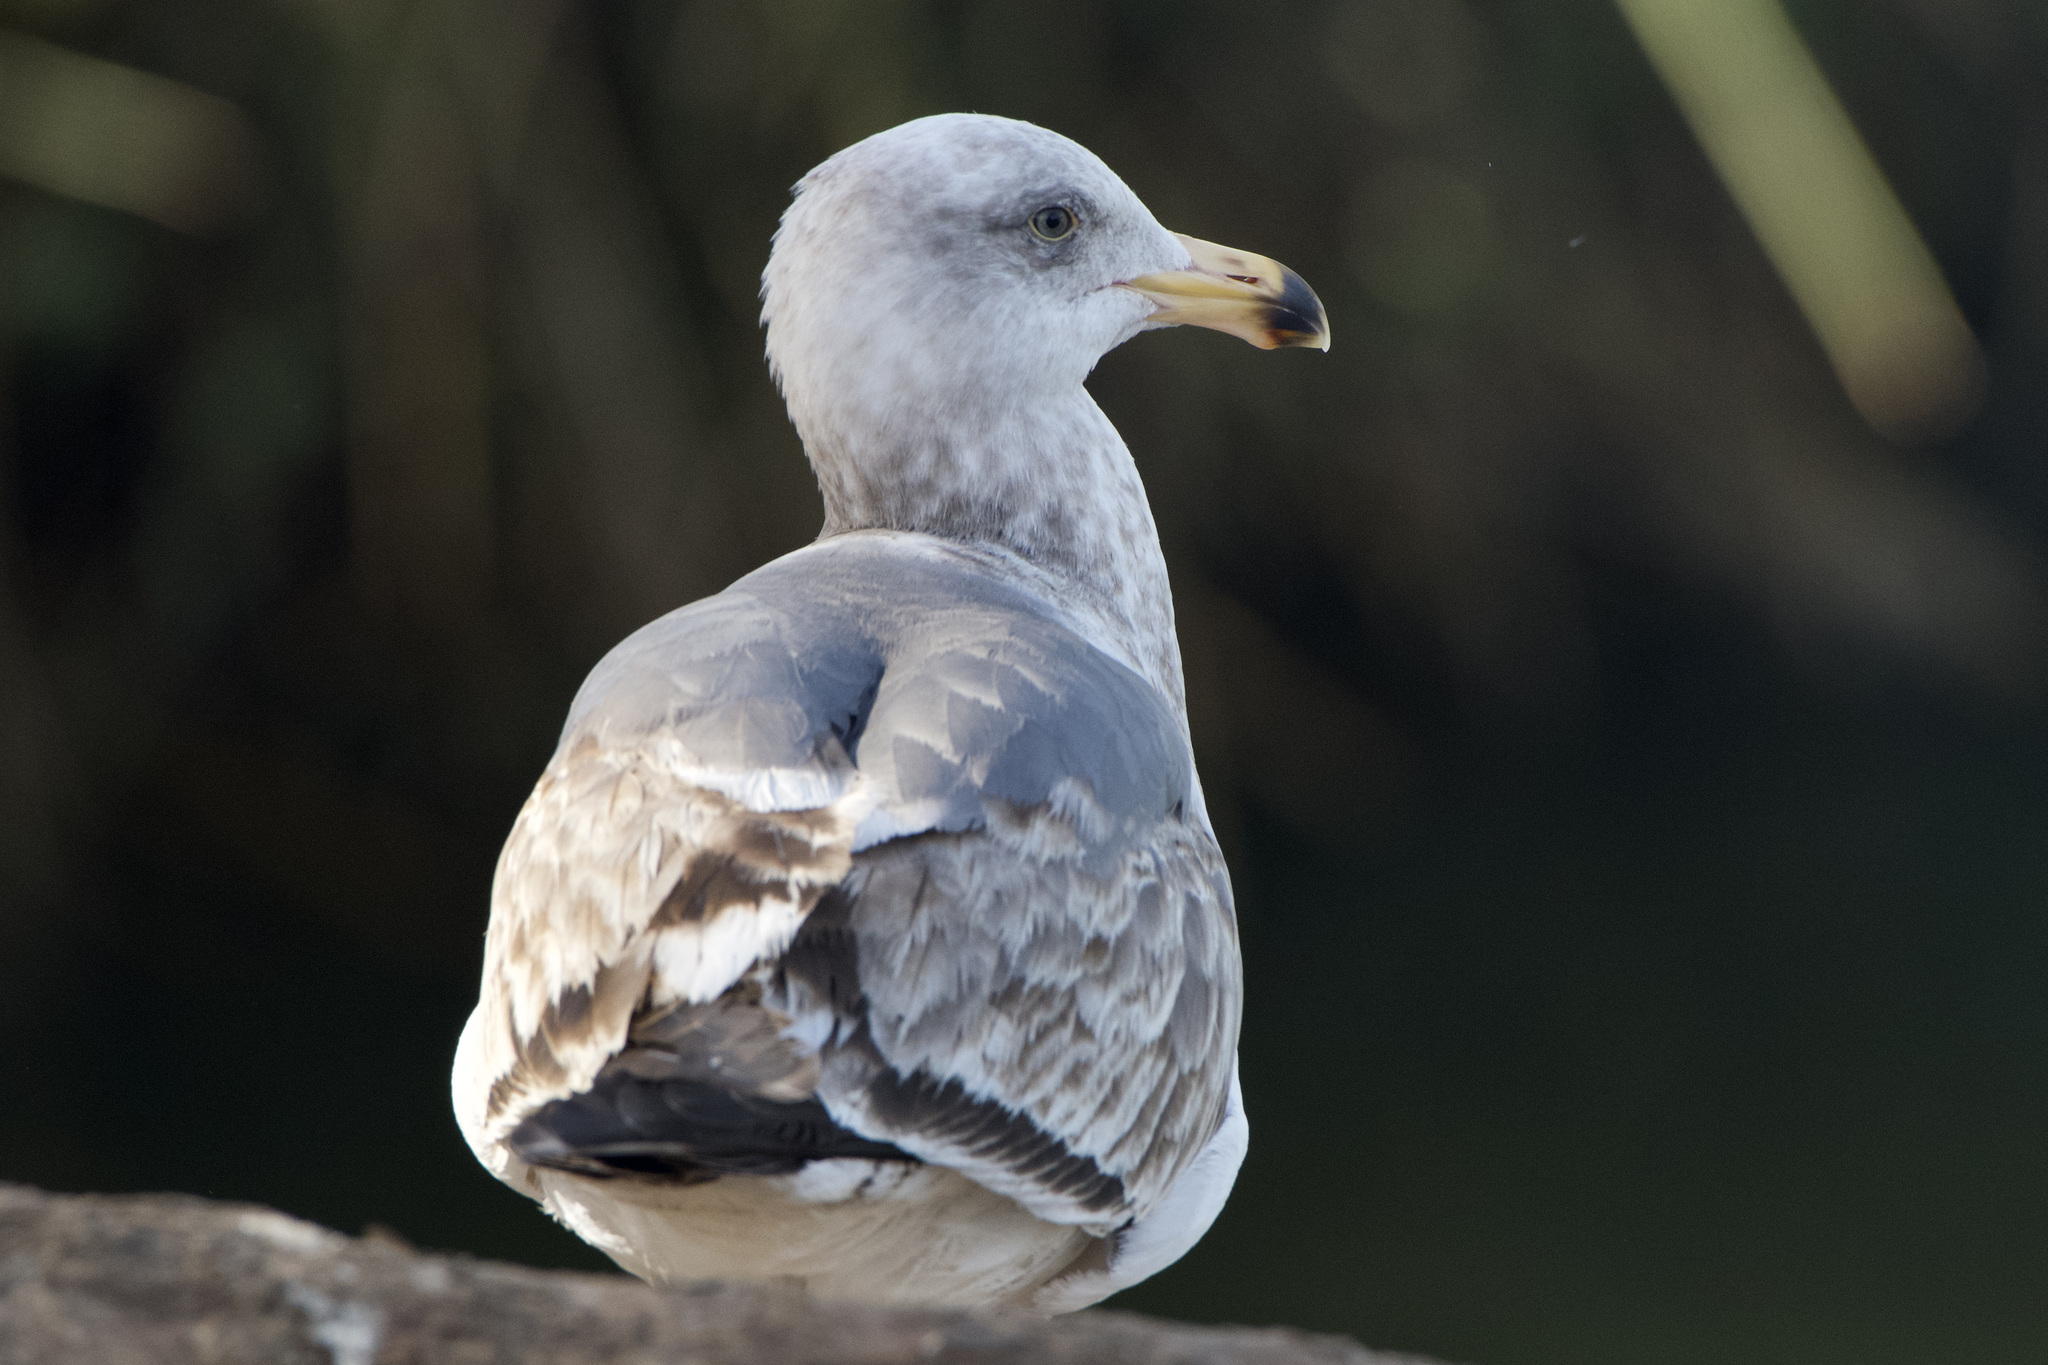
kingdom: Animalia
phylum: Chordata
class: Aves
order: Charadriiformes
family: Laridae
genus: Larus
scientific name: Larus occidentalis
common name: Western gull
